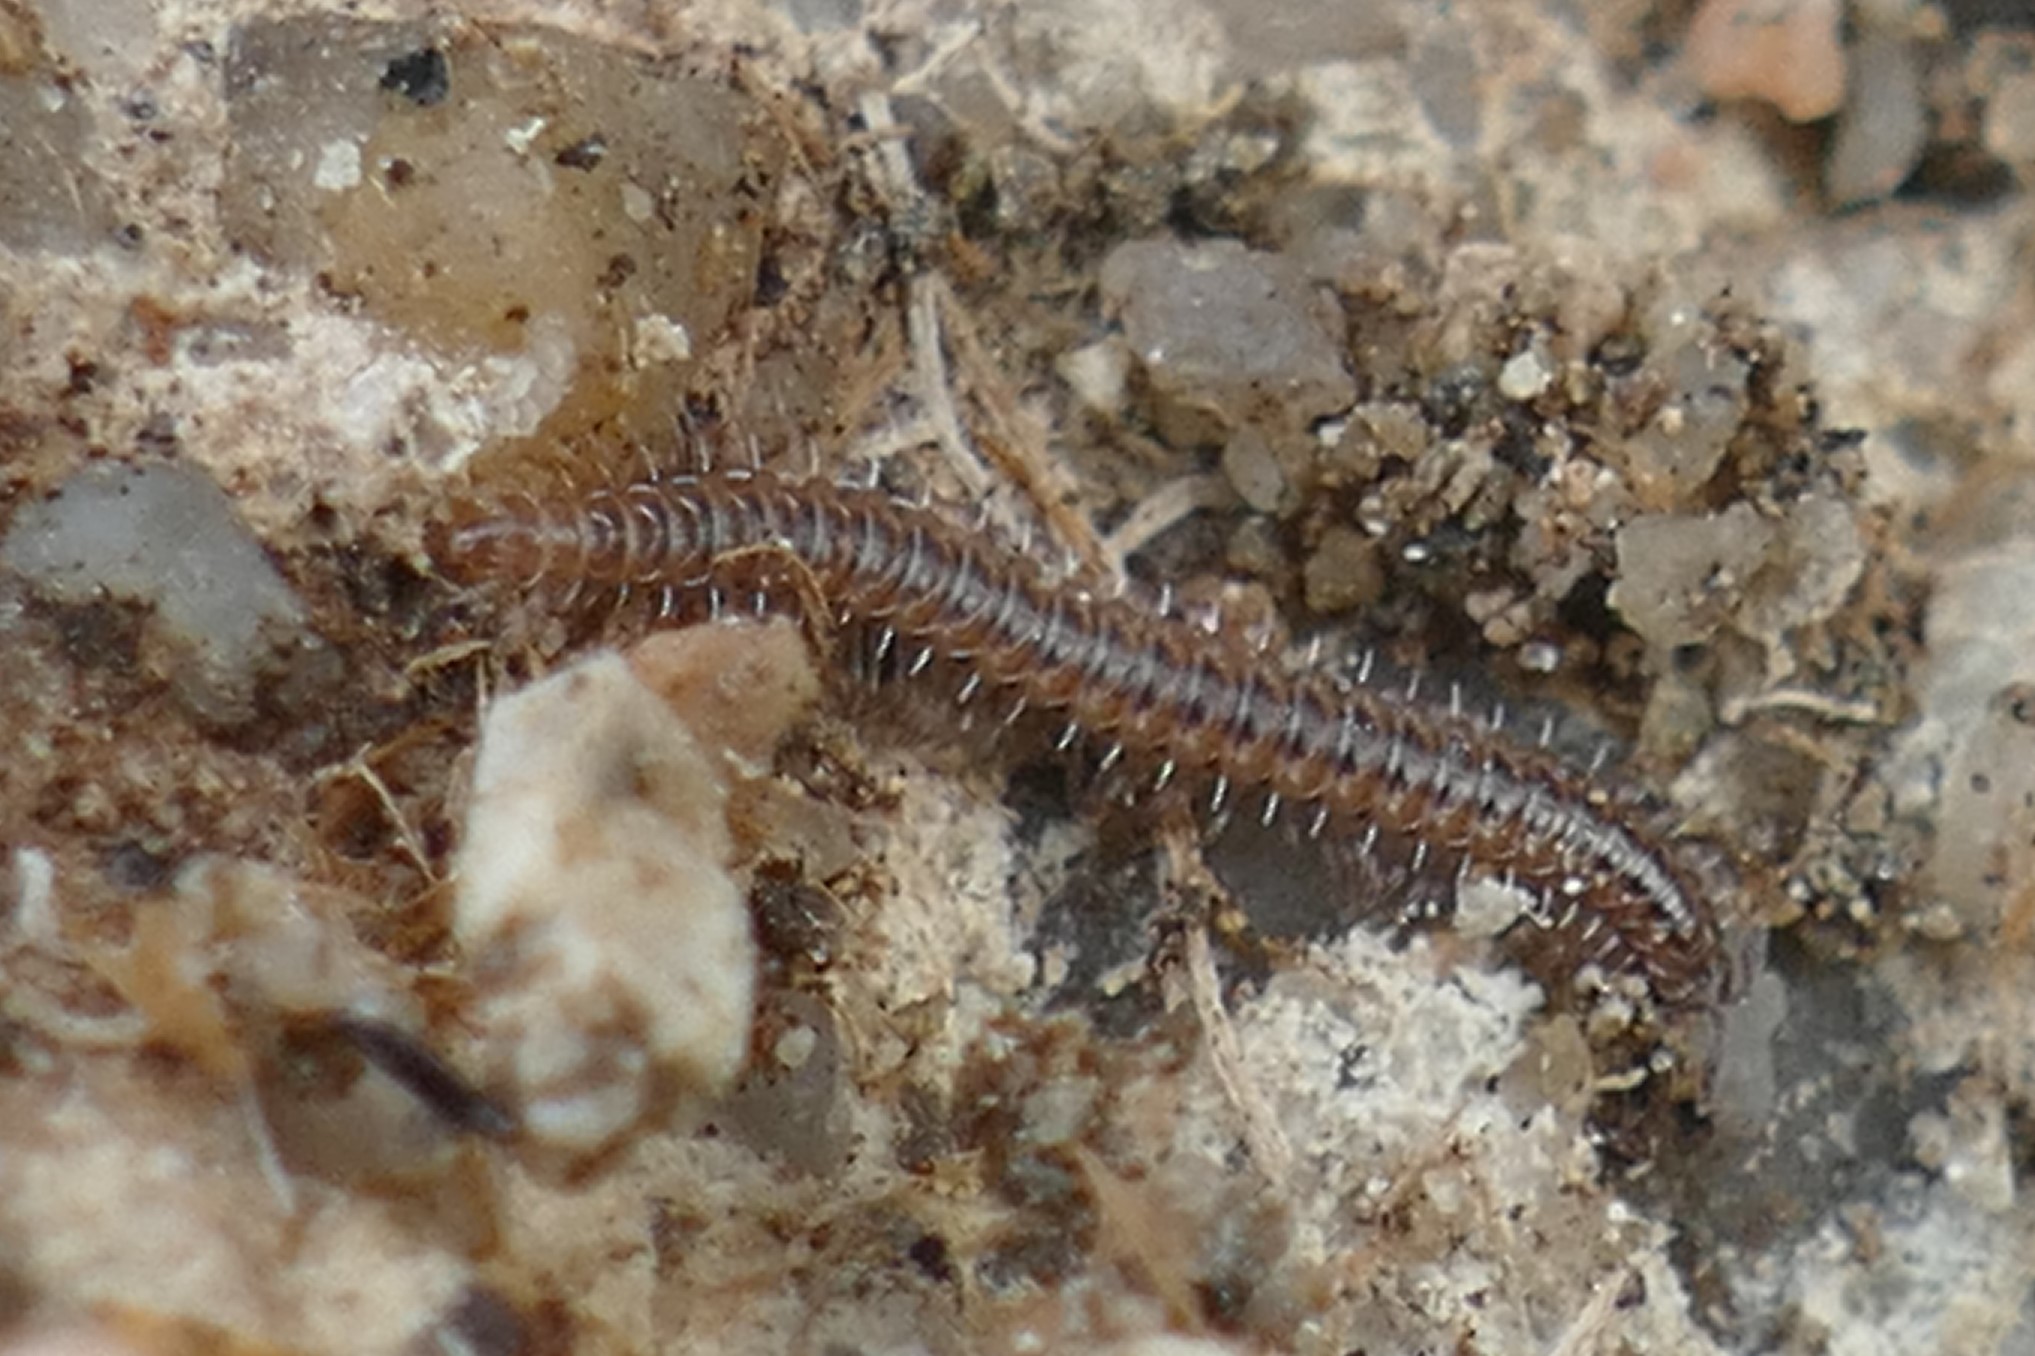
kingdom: Animalia
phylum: Arthropoda
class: Diplopoda
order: Chordeumatida
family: Opisthocheiridae
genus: Ceratosphys
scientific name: Ceratosphys poculifer
